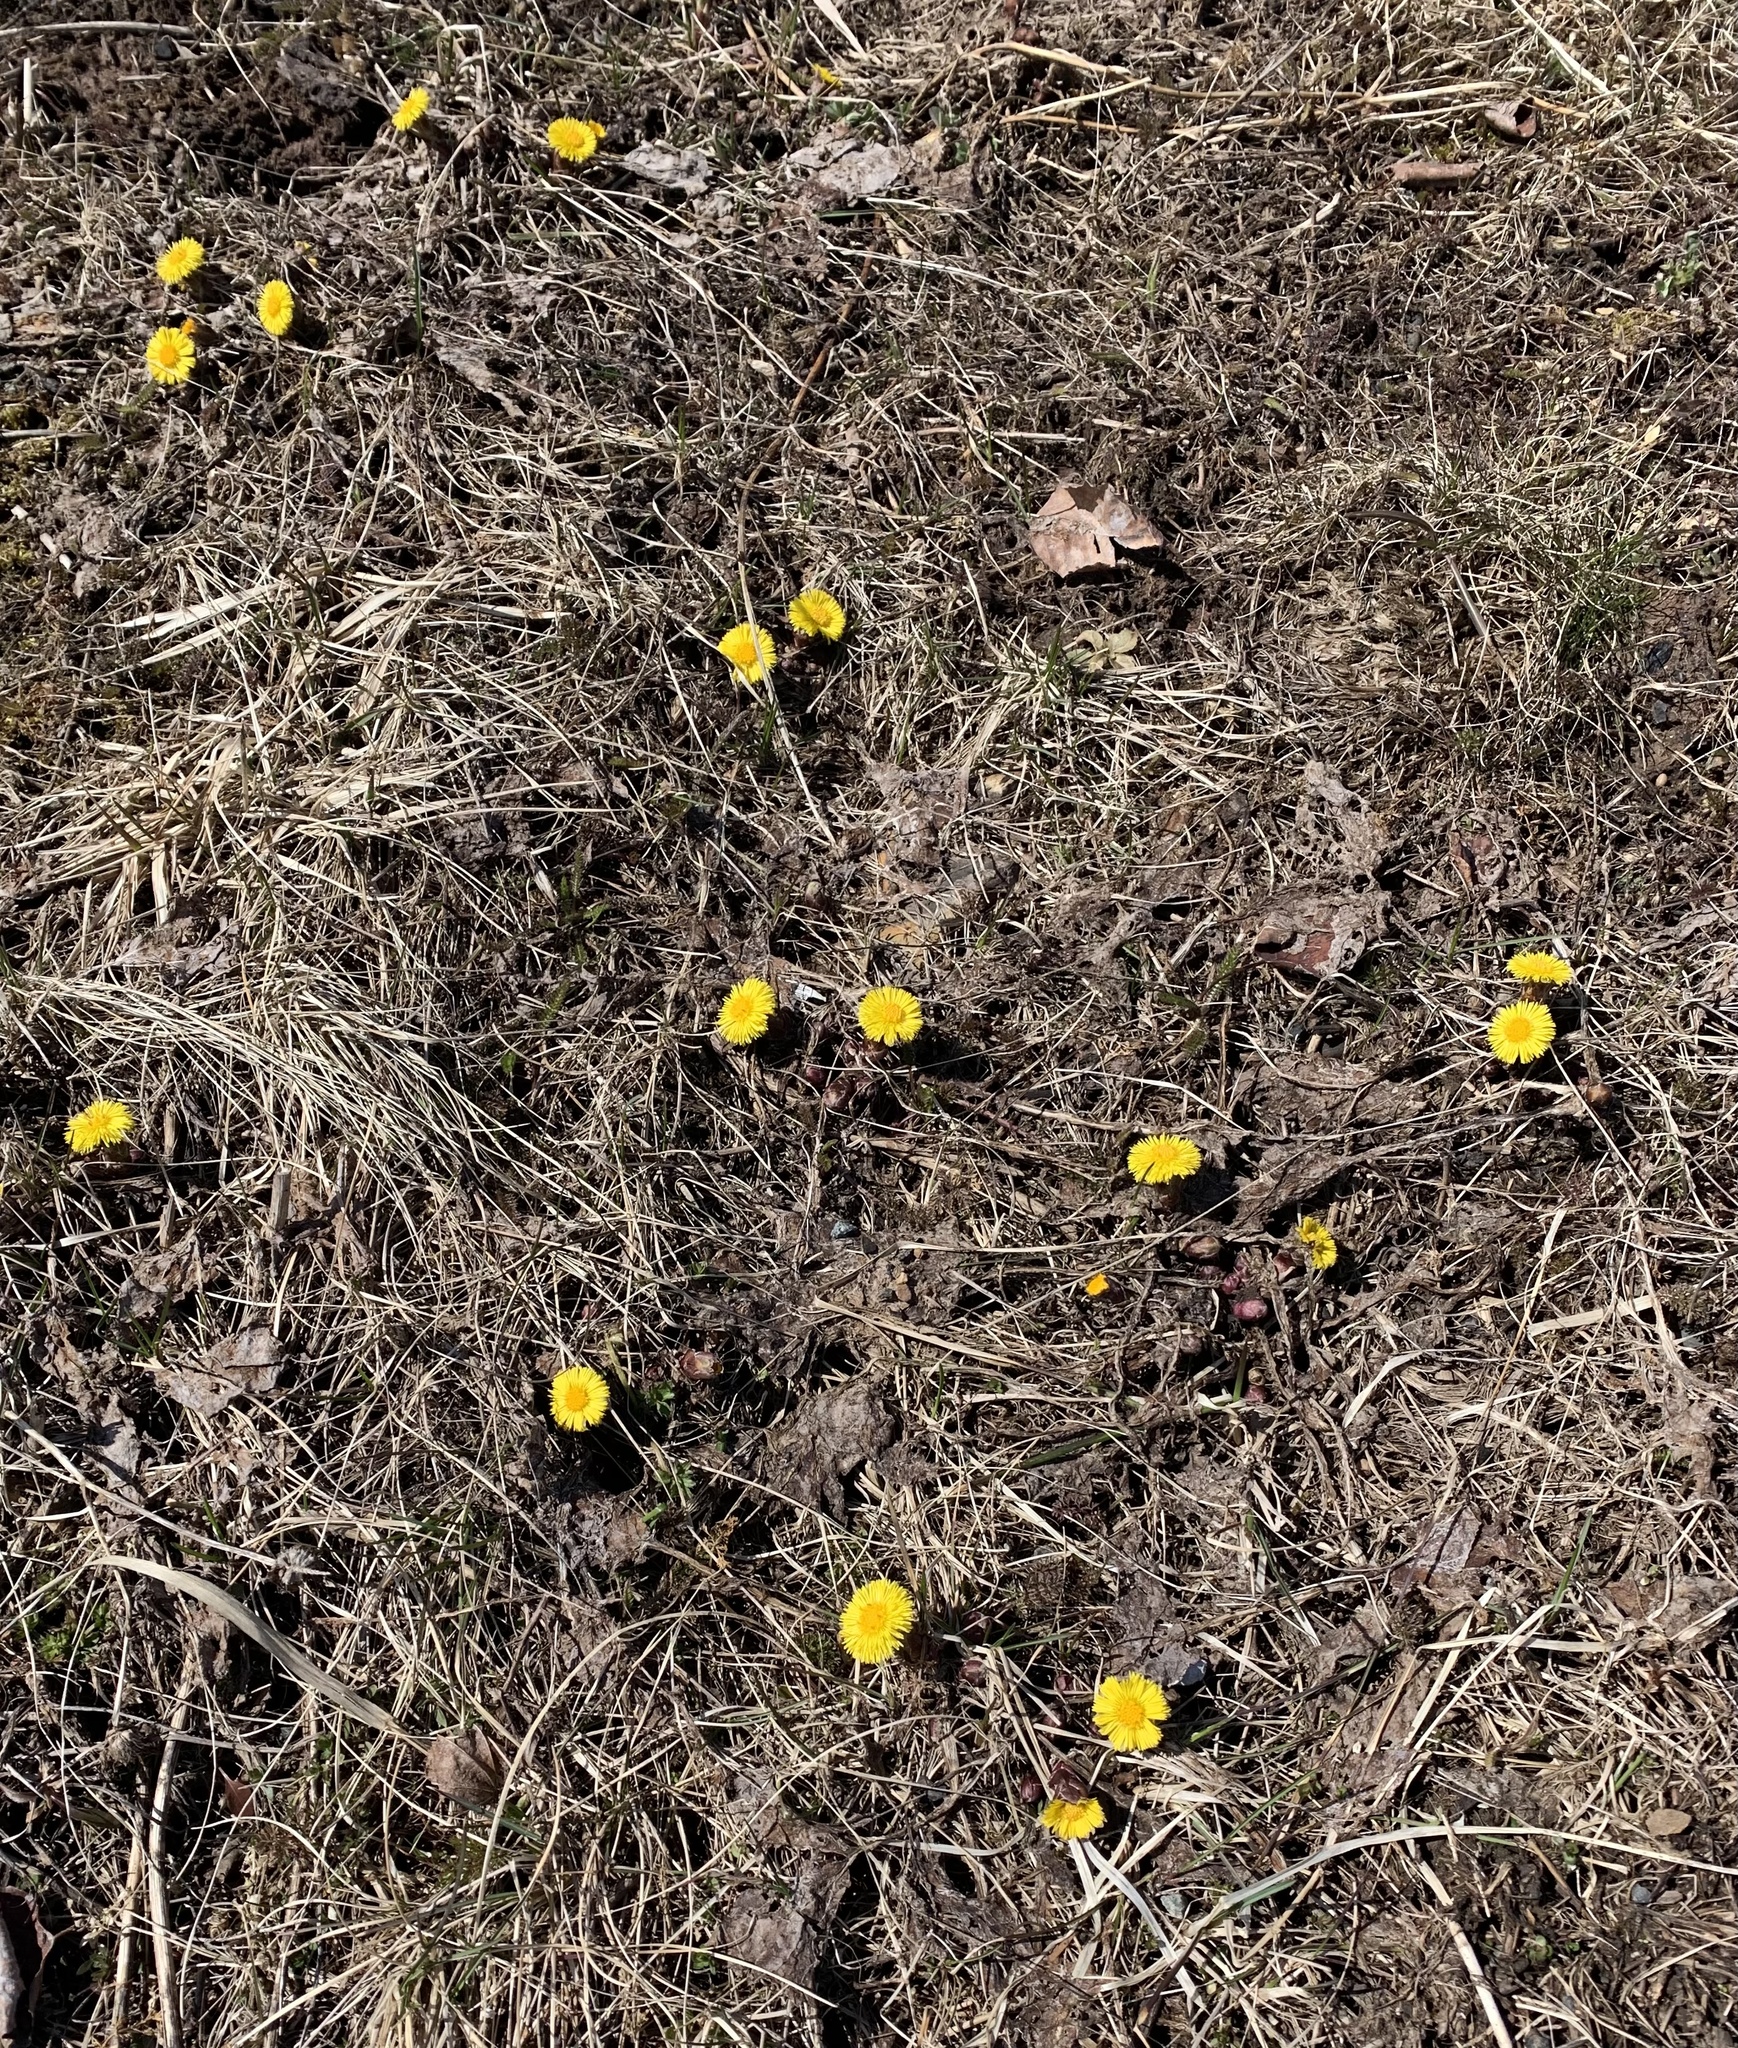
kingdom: Plantae
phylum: Tracheophyta
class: Magnoliopsida
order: Asterales
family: Asteraceae
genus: Tussilago
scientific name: Tussilago farfara
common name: Coltsfoot
